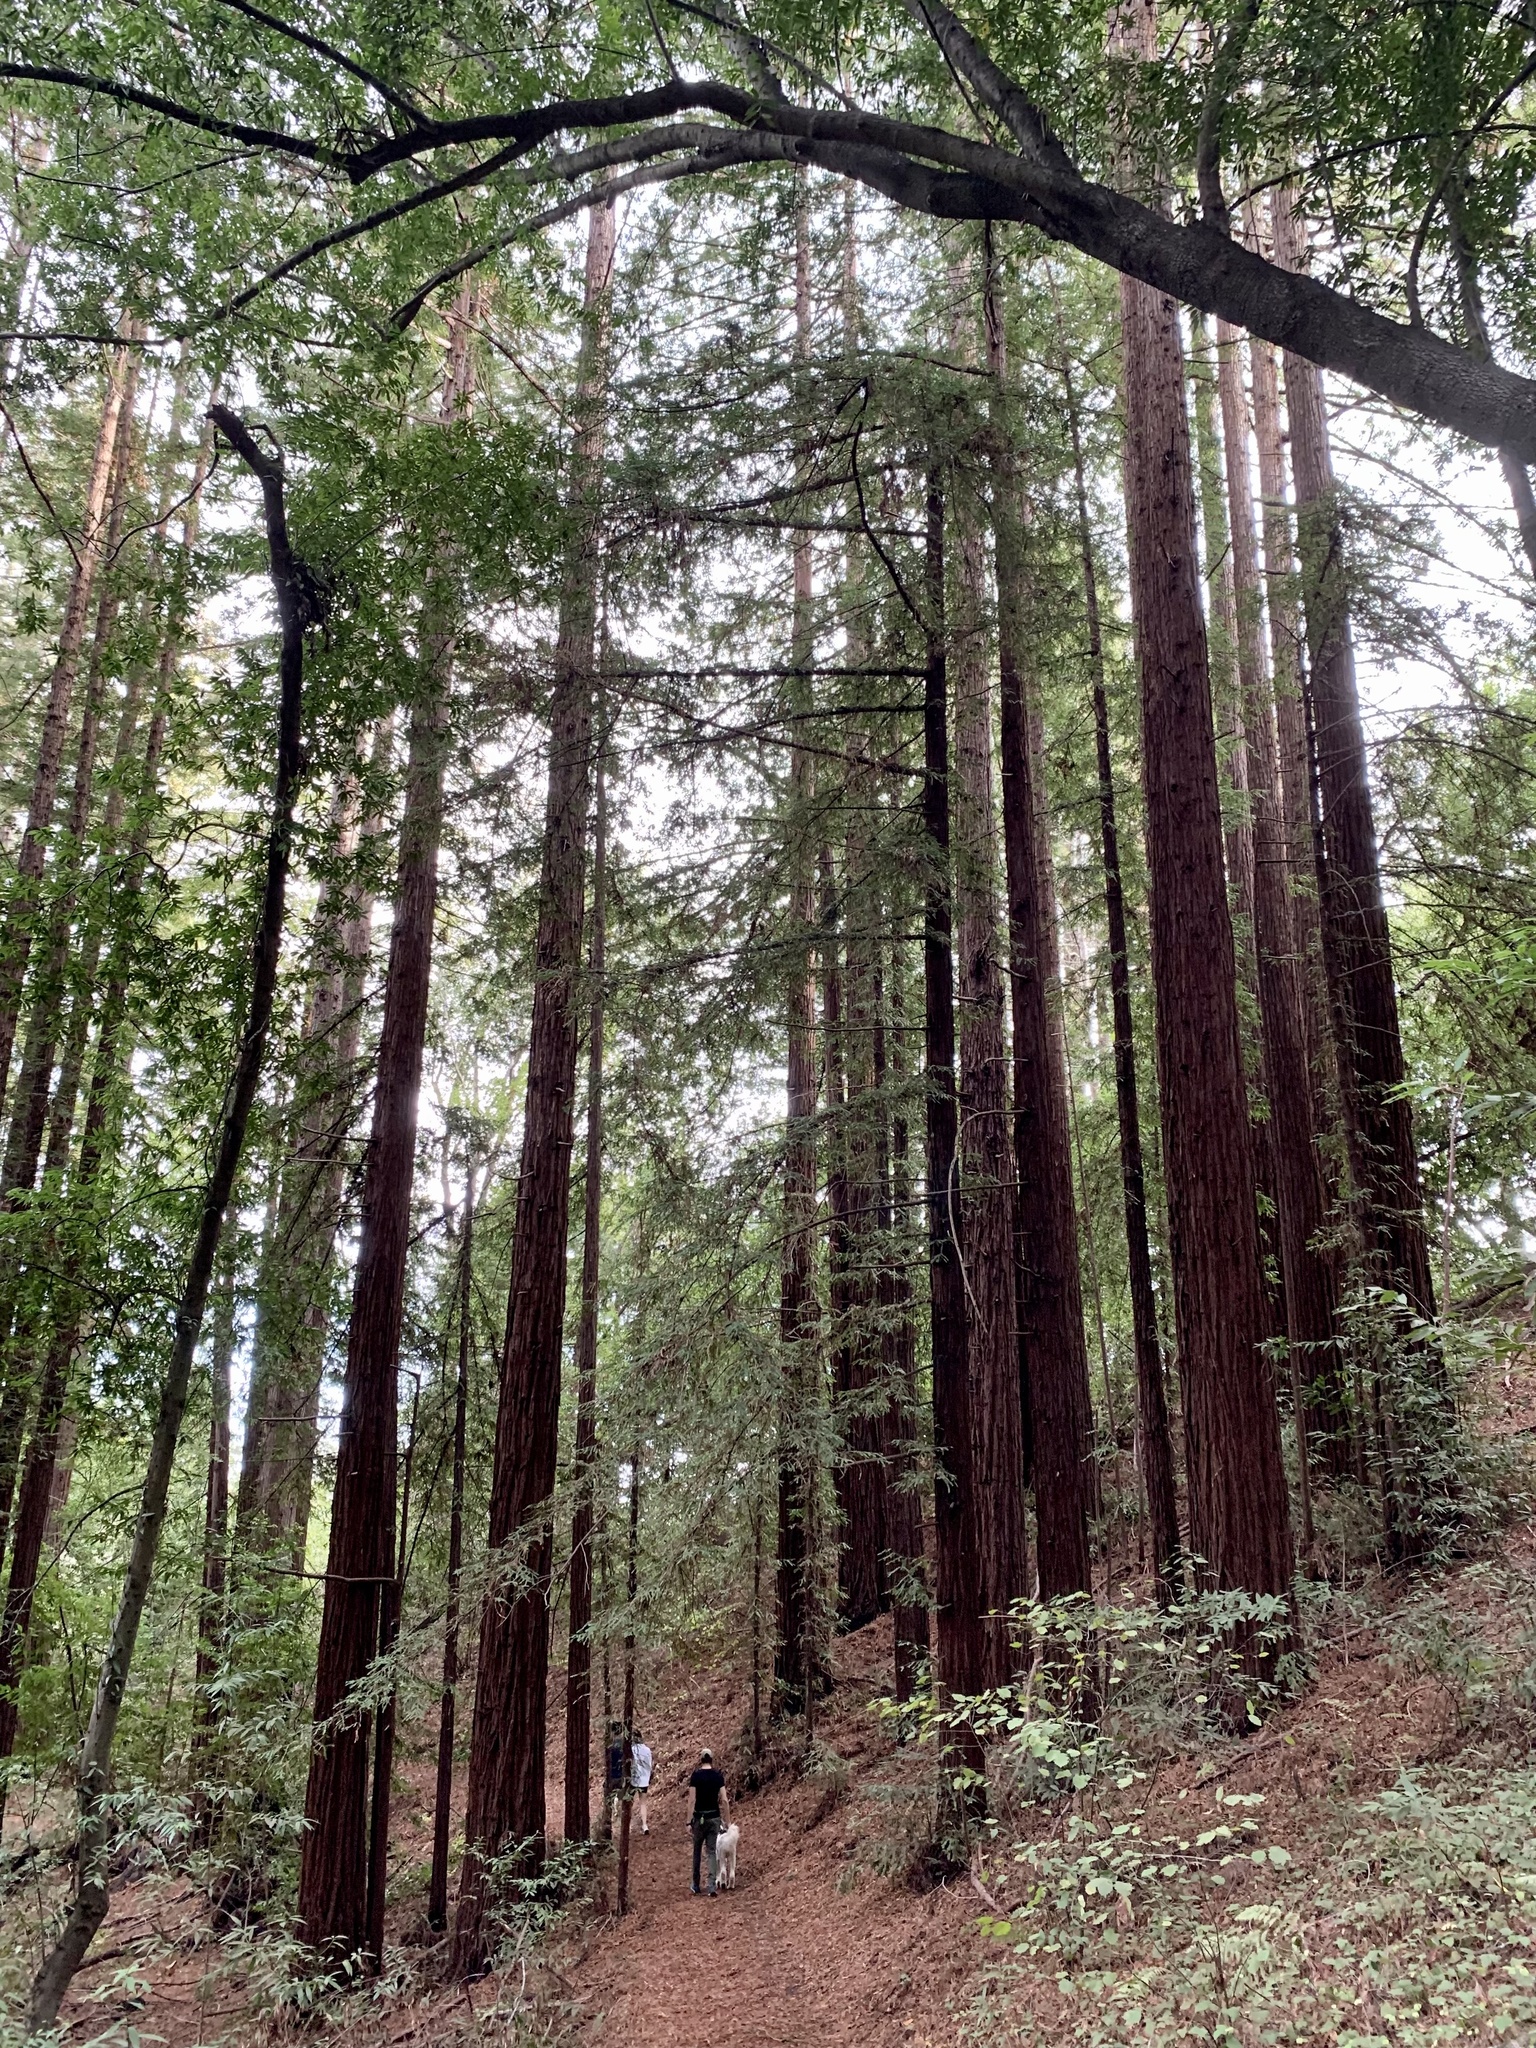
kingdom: Plantae
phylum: Tracheophyta
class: Pinopsida
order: Pinales
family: Cupressaceae
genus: Sequoia
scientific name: Sequoia sempervirens
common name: Coast redwood
